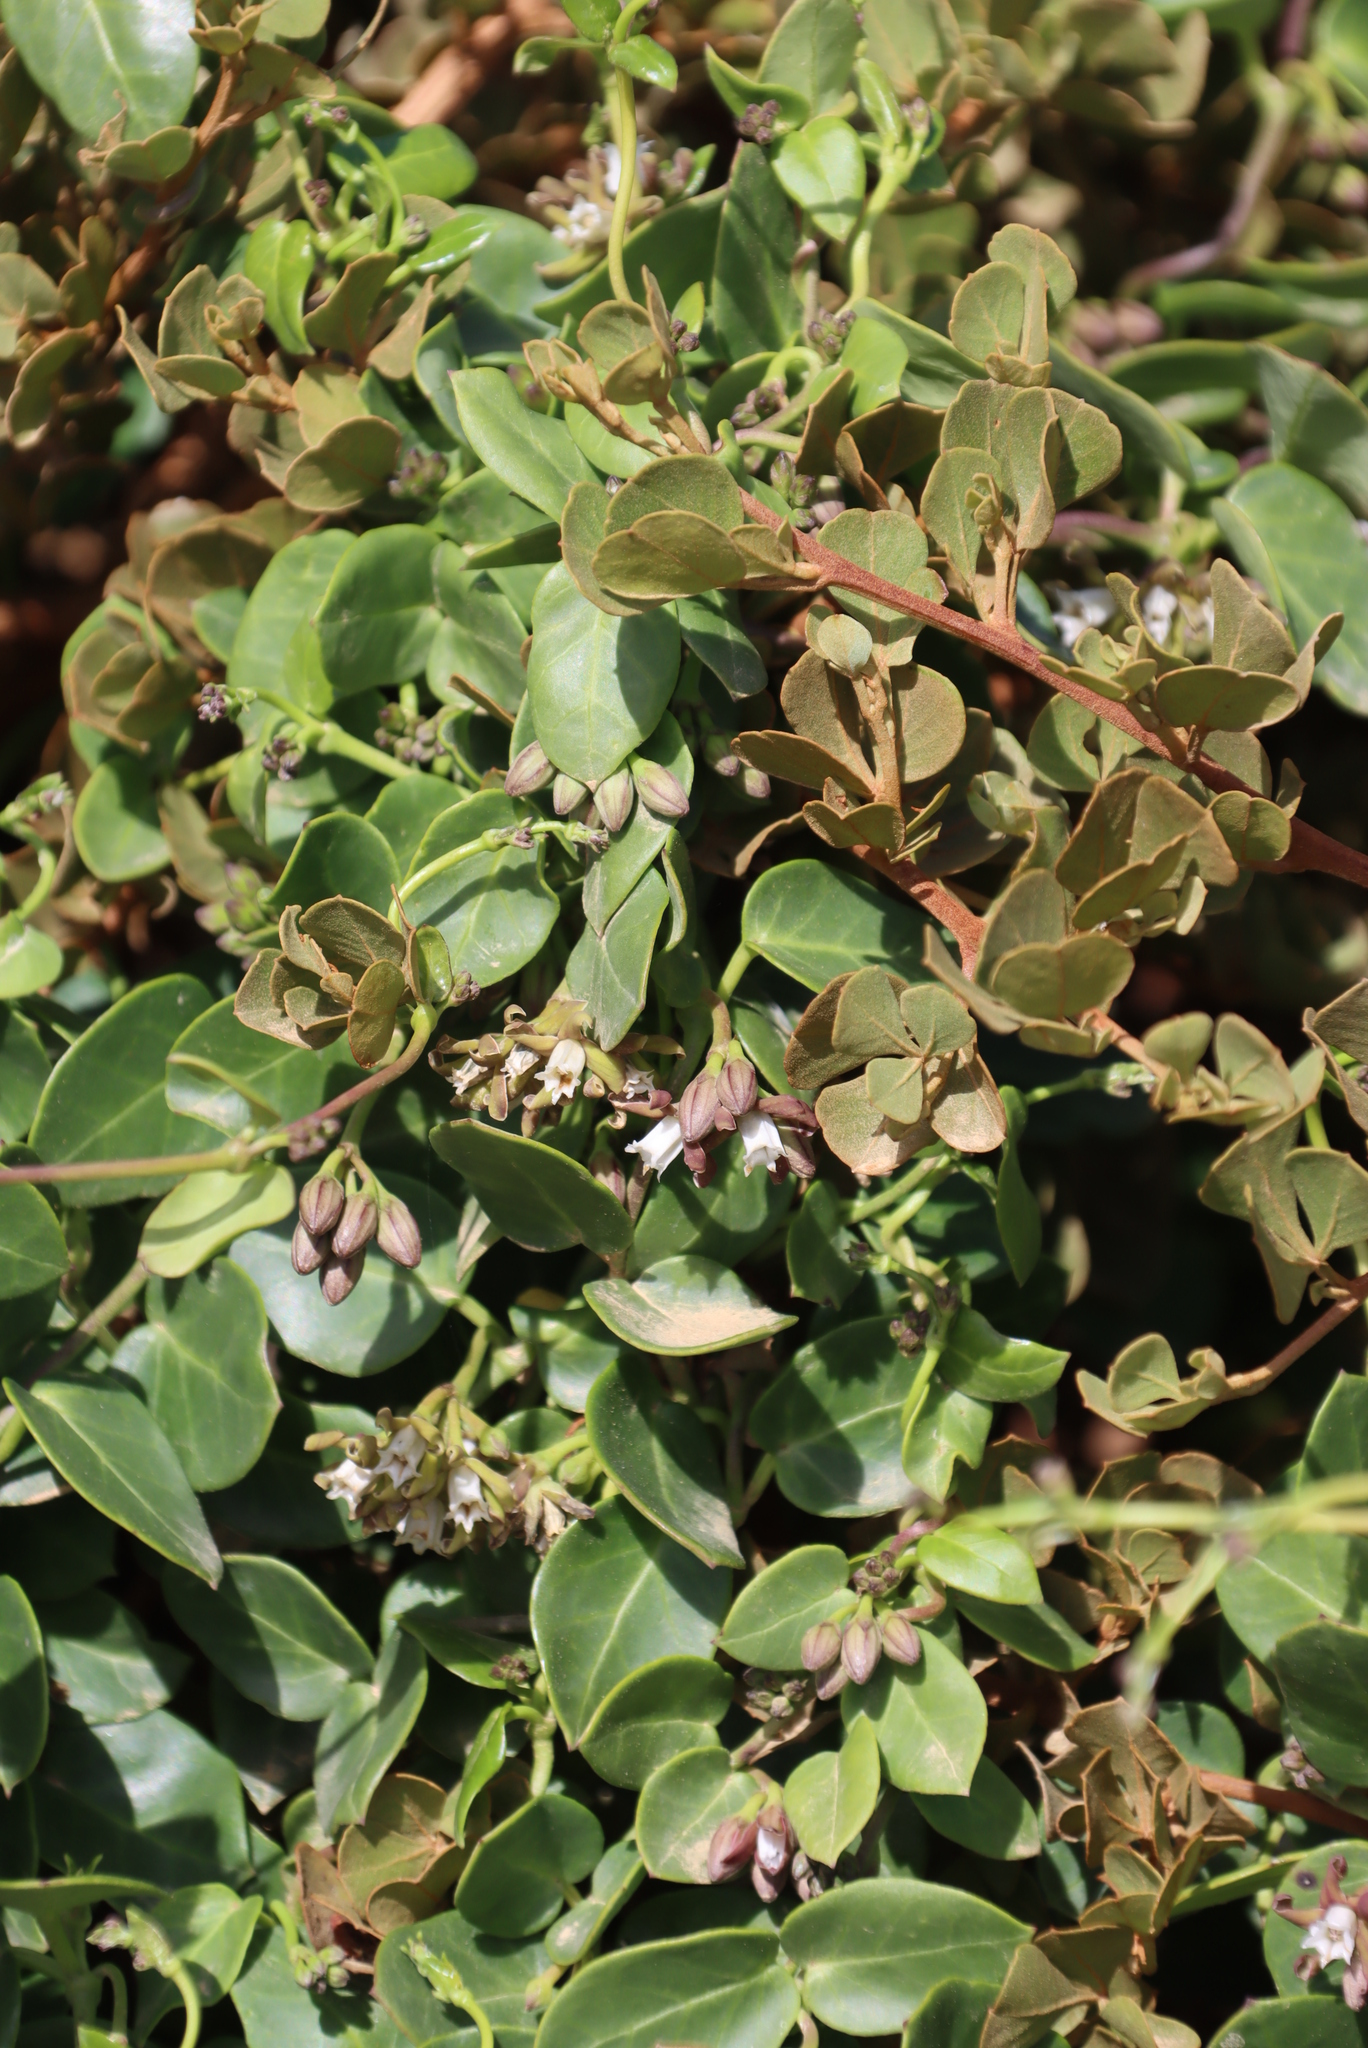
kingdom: Plantae
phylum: Tracheophyta
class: Magnoliopsida
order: Sapindales
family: Anacardiaceae
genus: Searsia
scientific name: Searsia glauca
